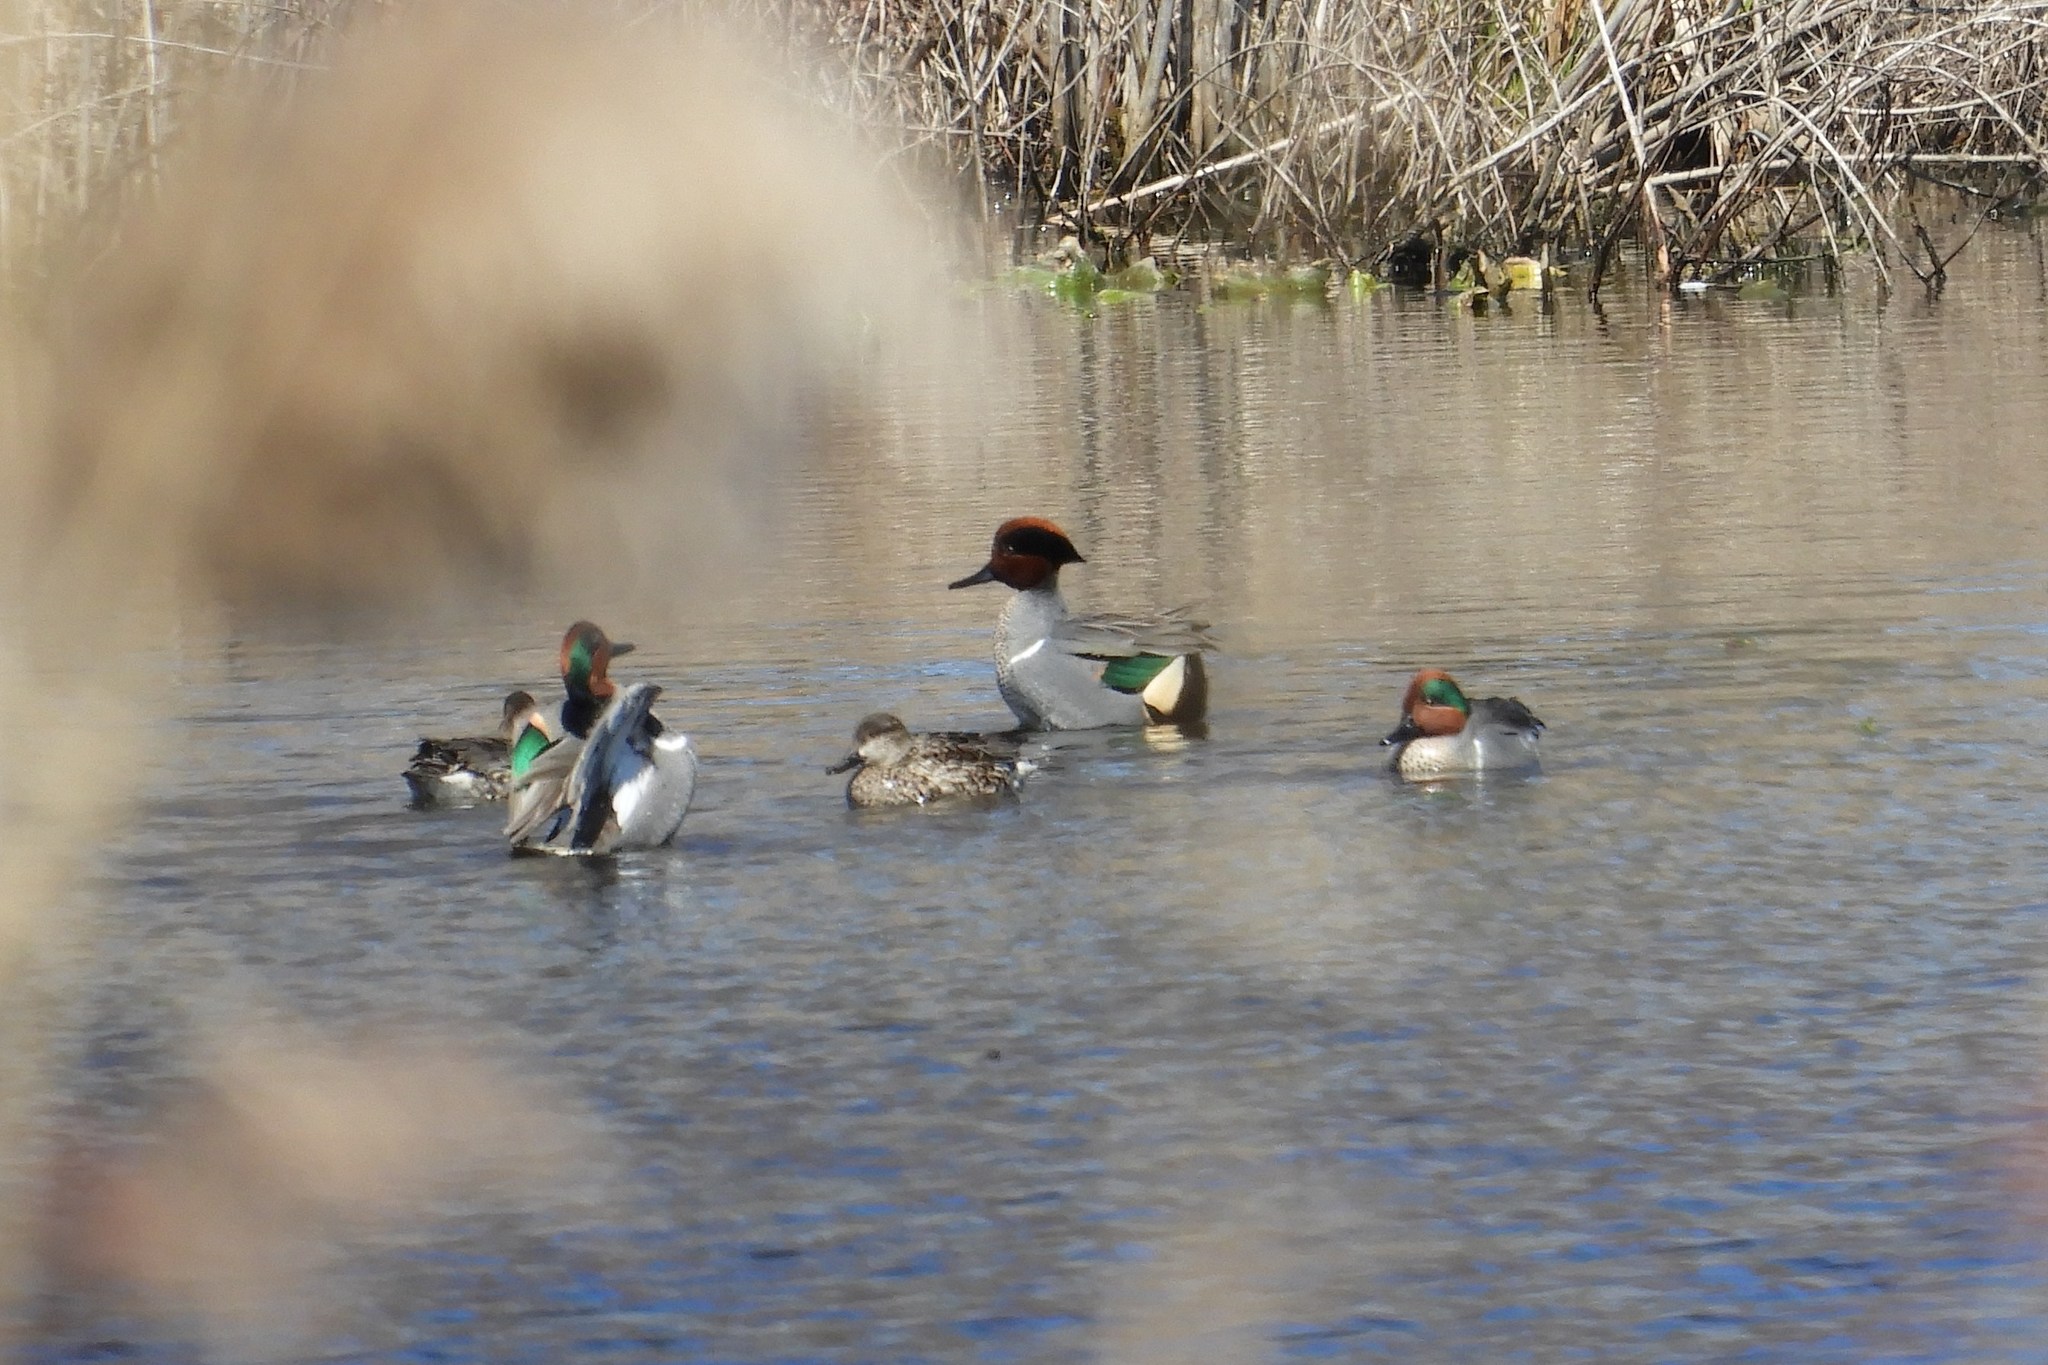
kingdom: Animalia
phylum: Chordata
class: Aves
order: Anseriformes
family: Anatidae
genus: Anas
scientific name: Anas crecca
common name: Eurasian teal
